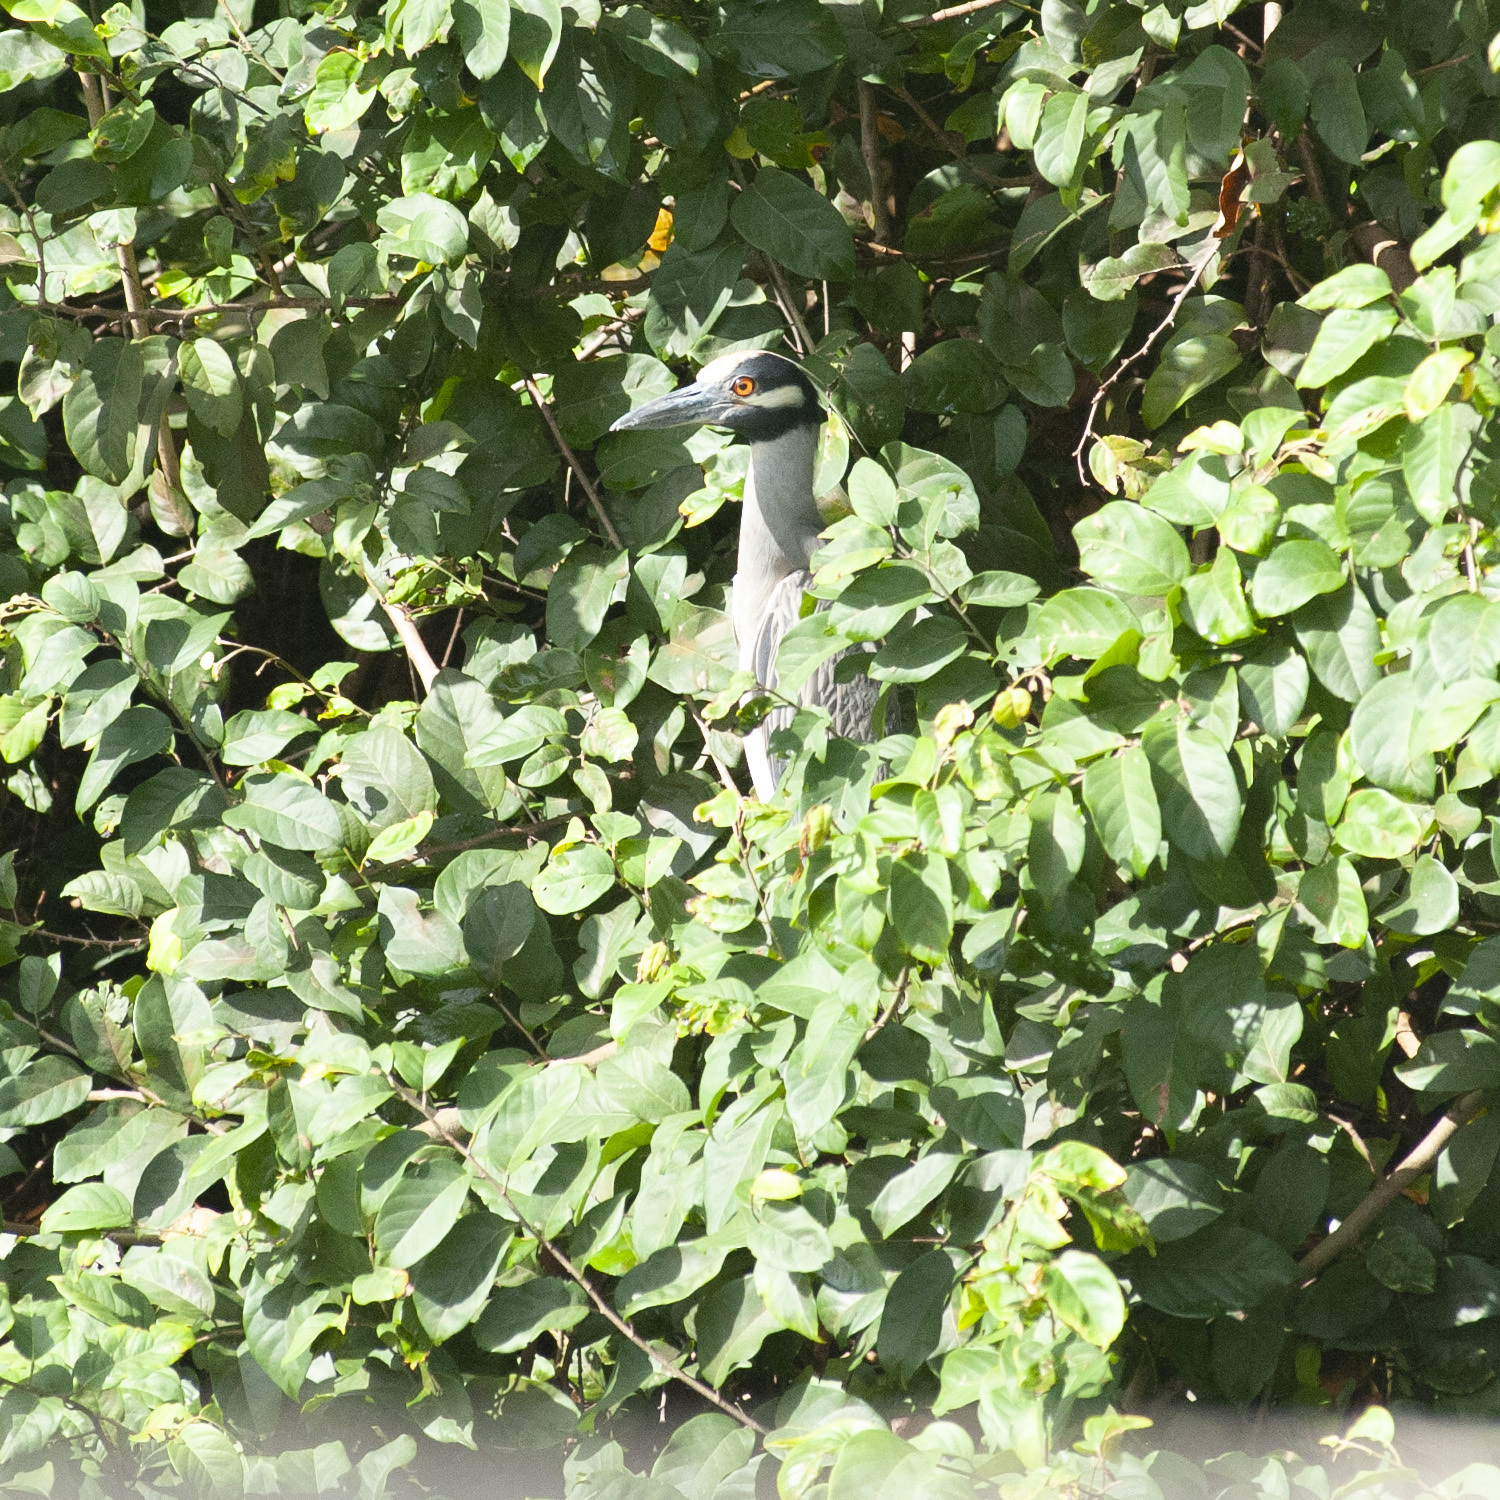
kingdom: Animalia
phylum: Chordata
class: Aves
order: Pelecaniformes
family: Ardeidae
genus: Nyctanassa
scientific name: Nyctanassa violacea
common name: Yellow-crowned night heron
